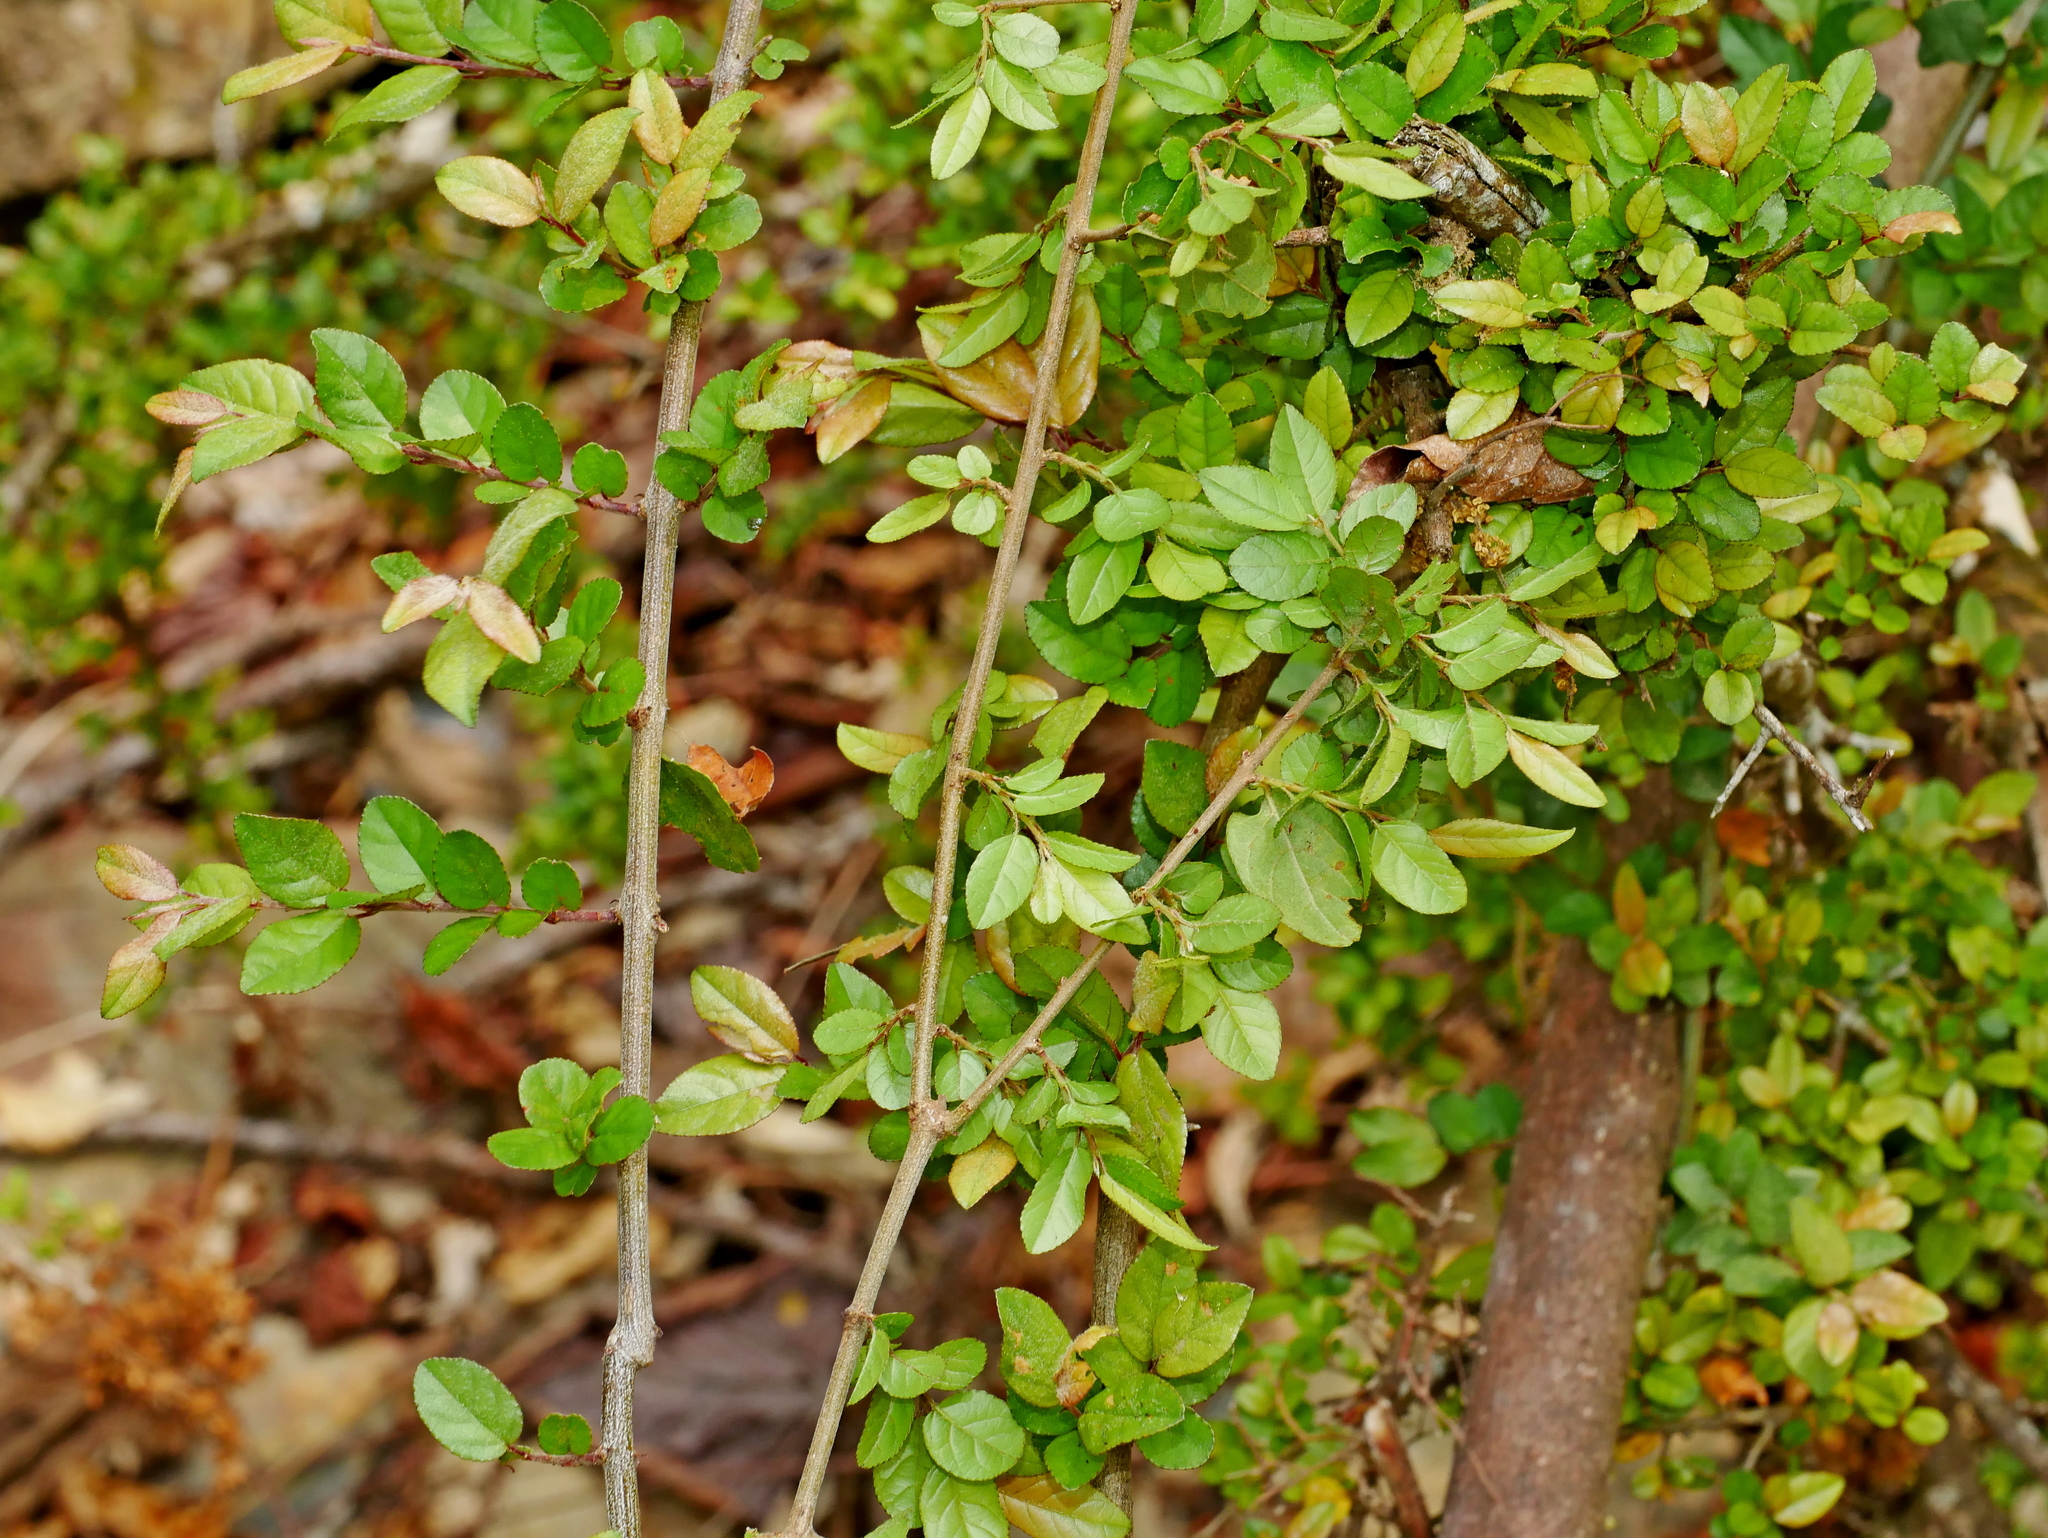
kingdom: Plantae
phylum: Tracheophyta
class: Magnoliopsida
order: Rosales
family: Rhamnaceae
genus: Sageretia
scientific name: Sageretia thea
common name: Pauper's-tea
